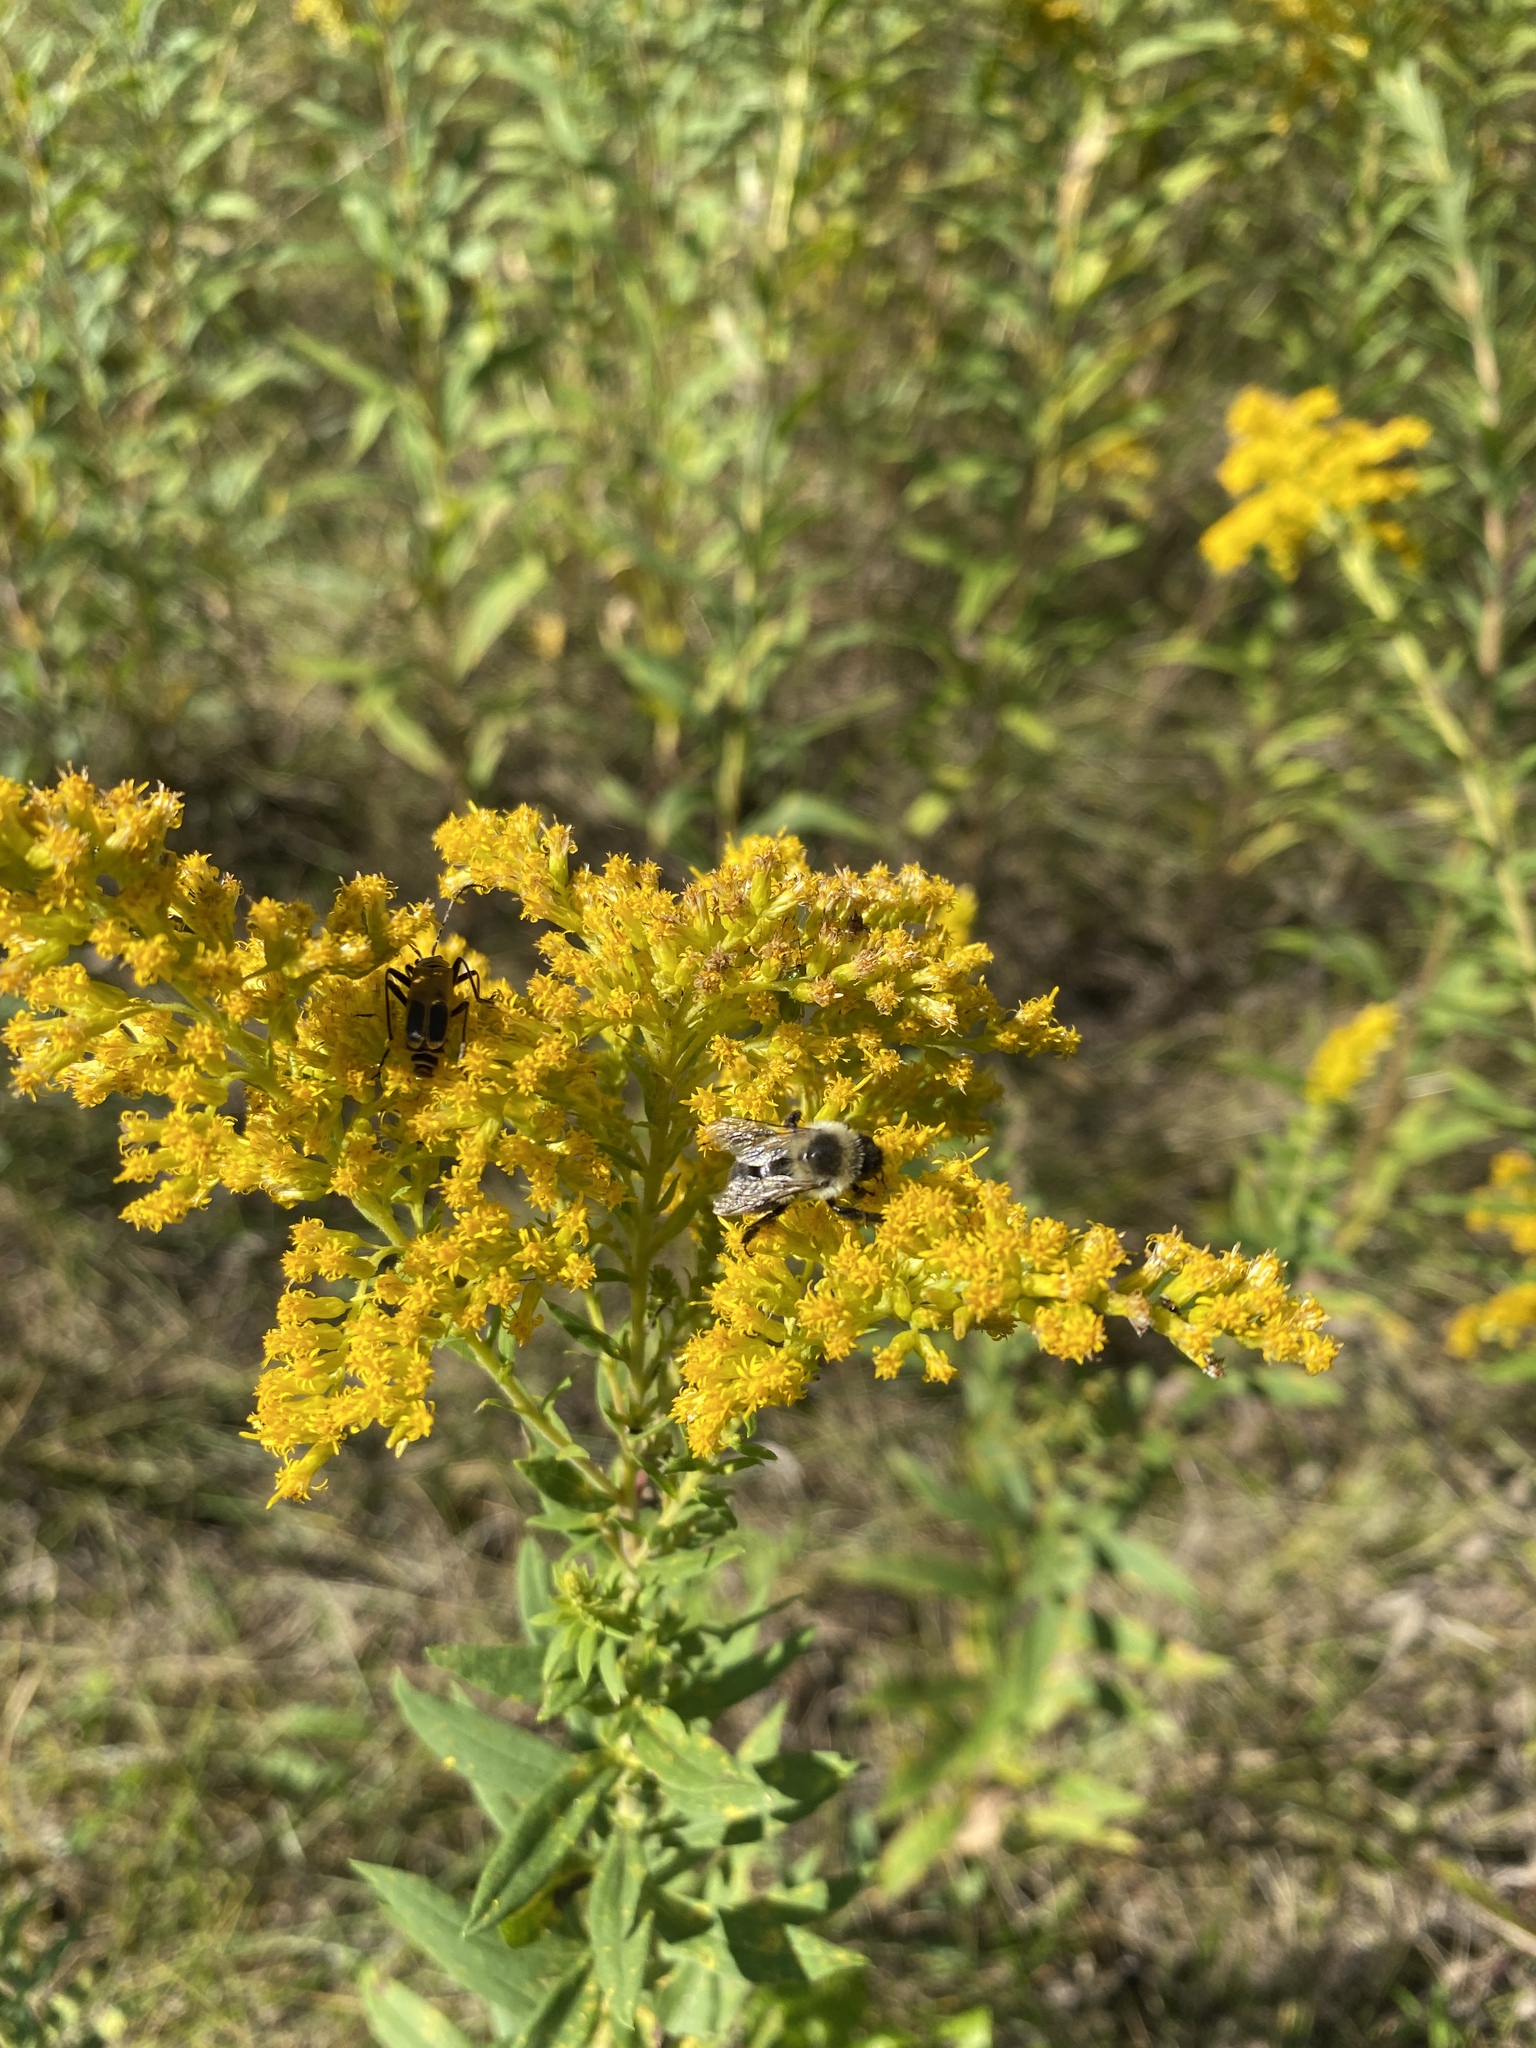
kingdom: Animalia
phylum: Arthropoda
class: Insecta
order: Hymenoptera
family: Apidae
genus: Bombus
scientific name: Bombus impatiens
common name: Common eastern bumble bee
